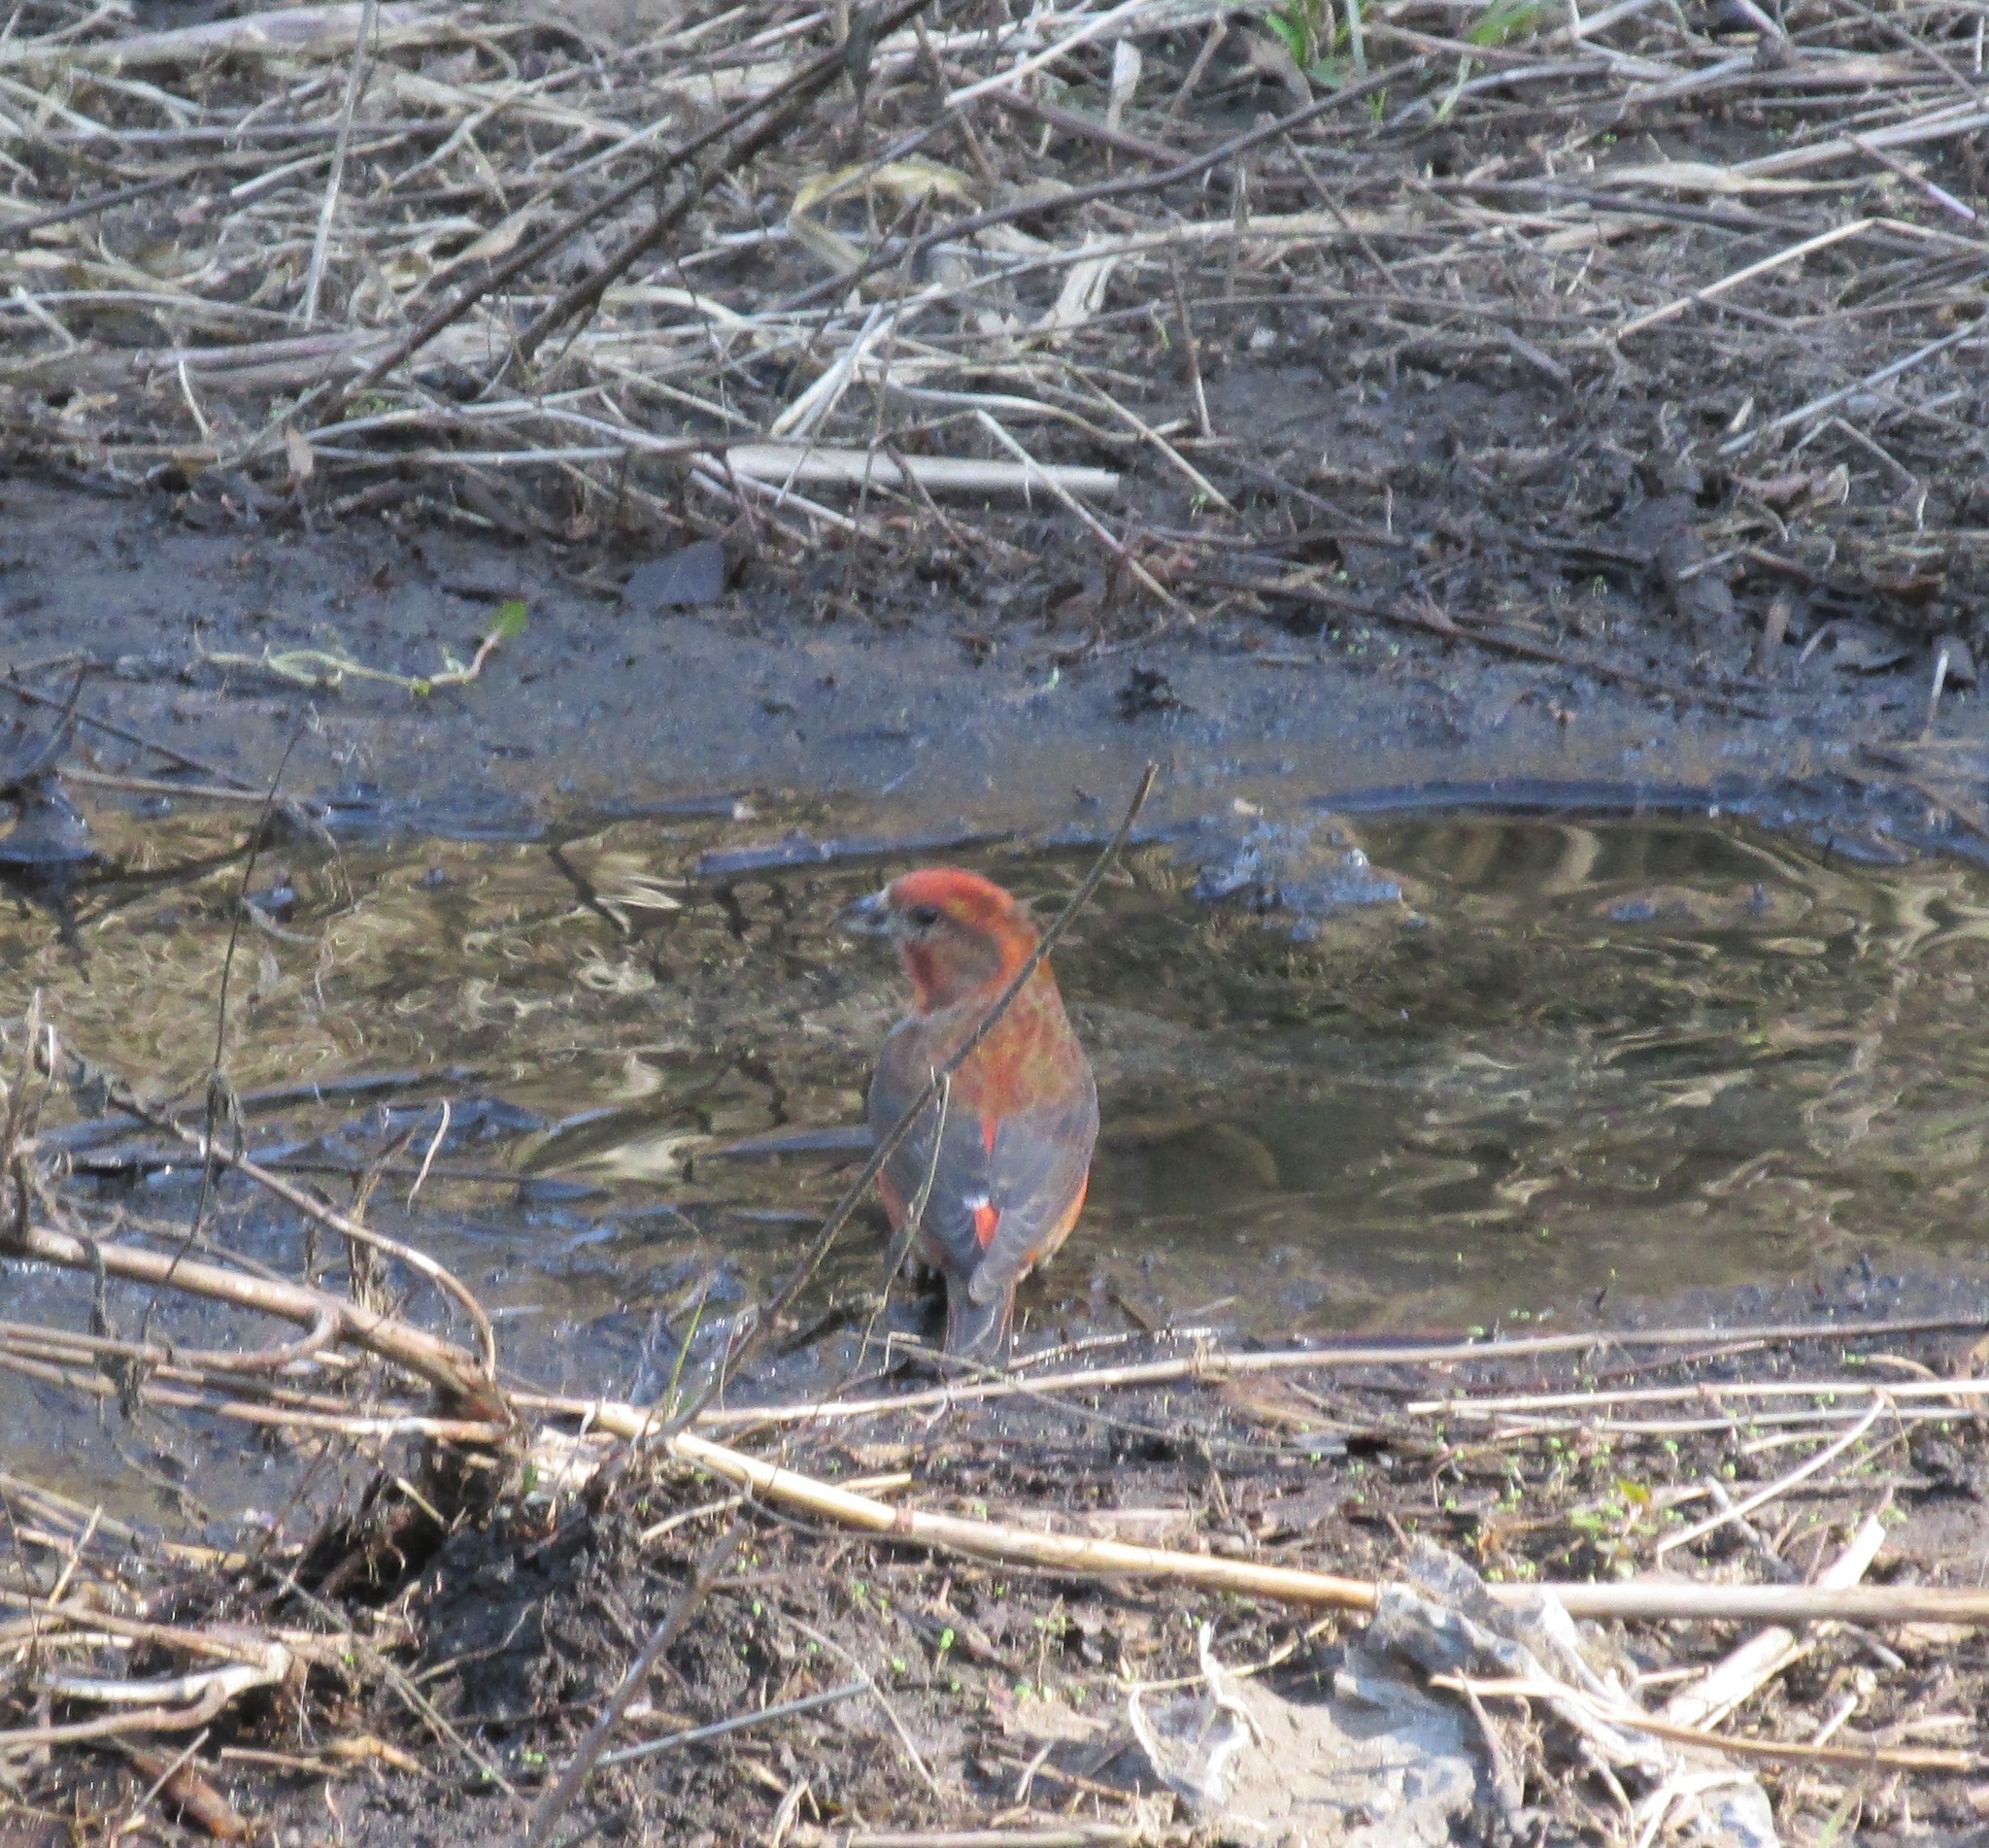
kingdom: Animalia
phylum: Chordata
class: Aves
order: Passeriformes
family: Fringillidae
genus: Loxia
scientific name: Loxia curvirostra
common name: Red crossbill
